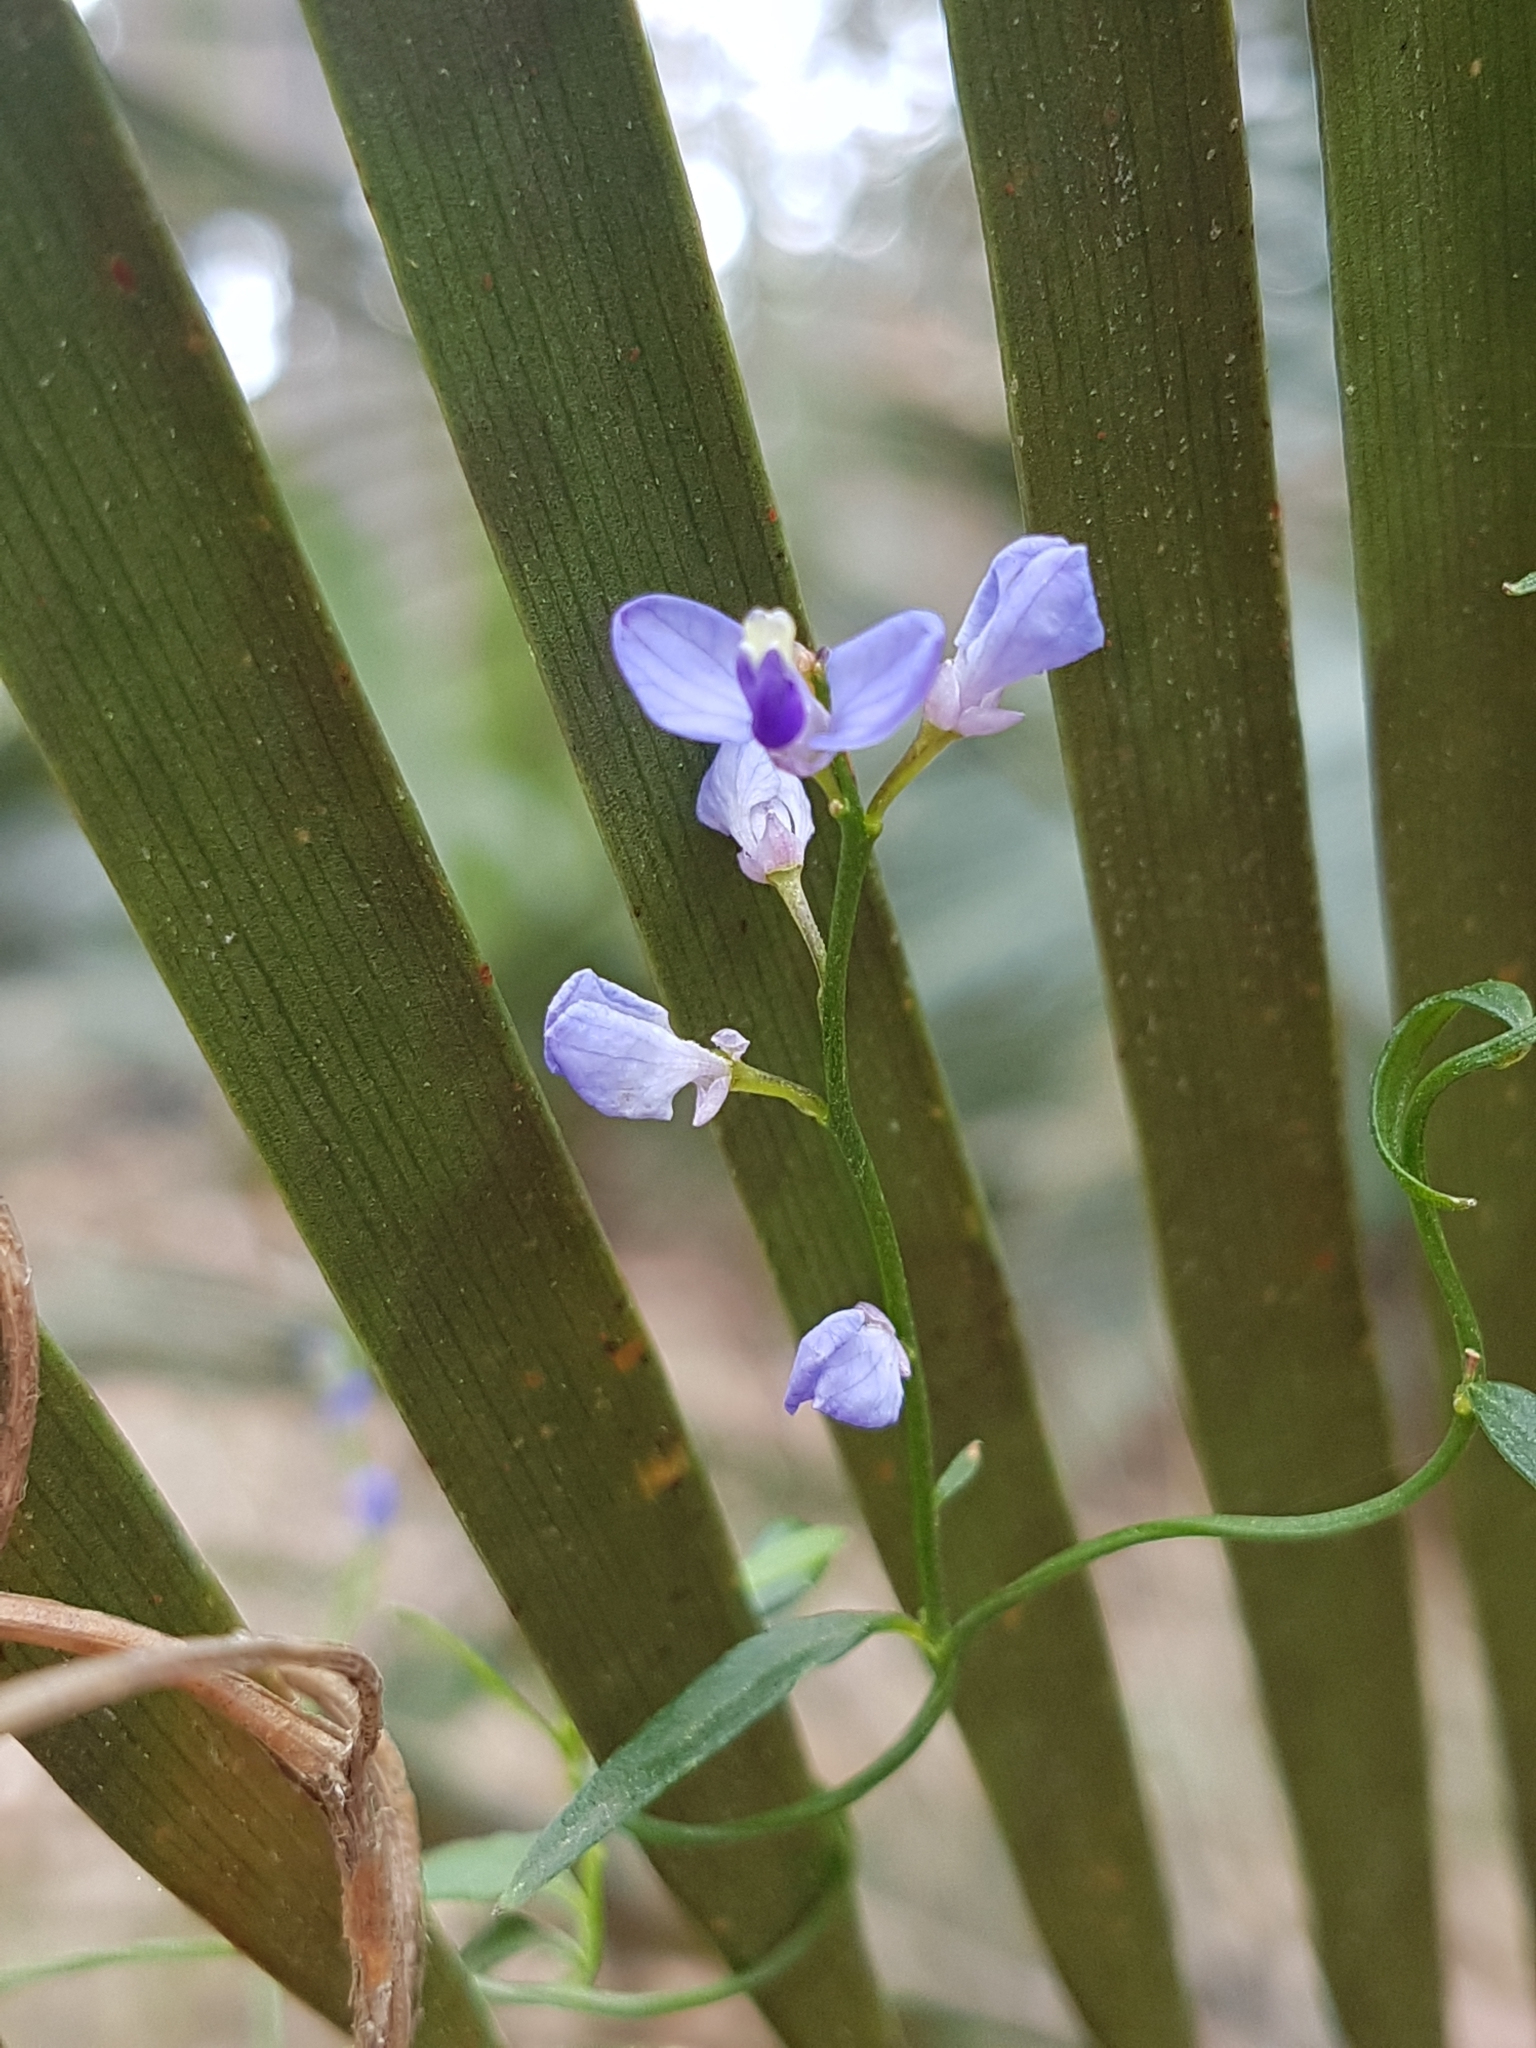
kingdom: Plantae
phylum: Tracheophyta
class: Magnoliopsida
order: Fabales
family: Polygalaceae
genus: Comesperma
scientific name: Comesperma volubile
